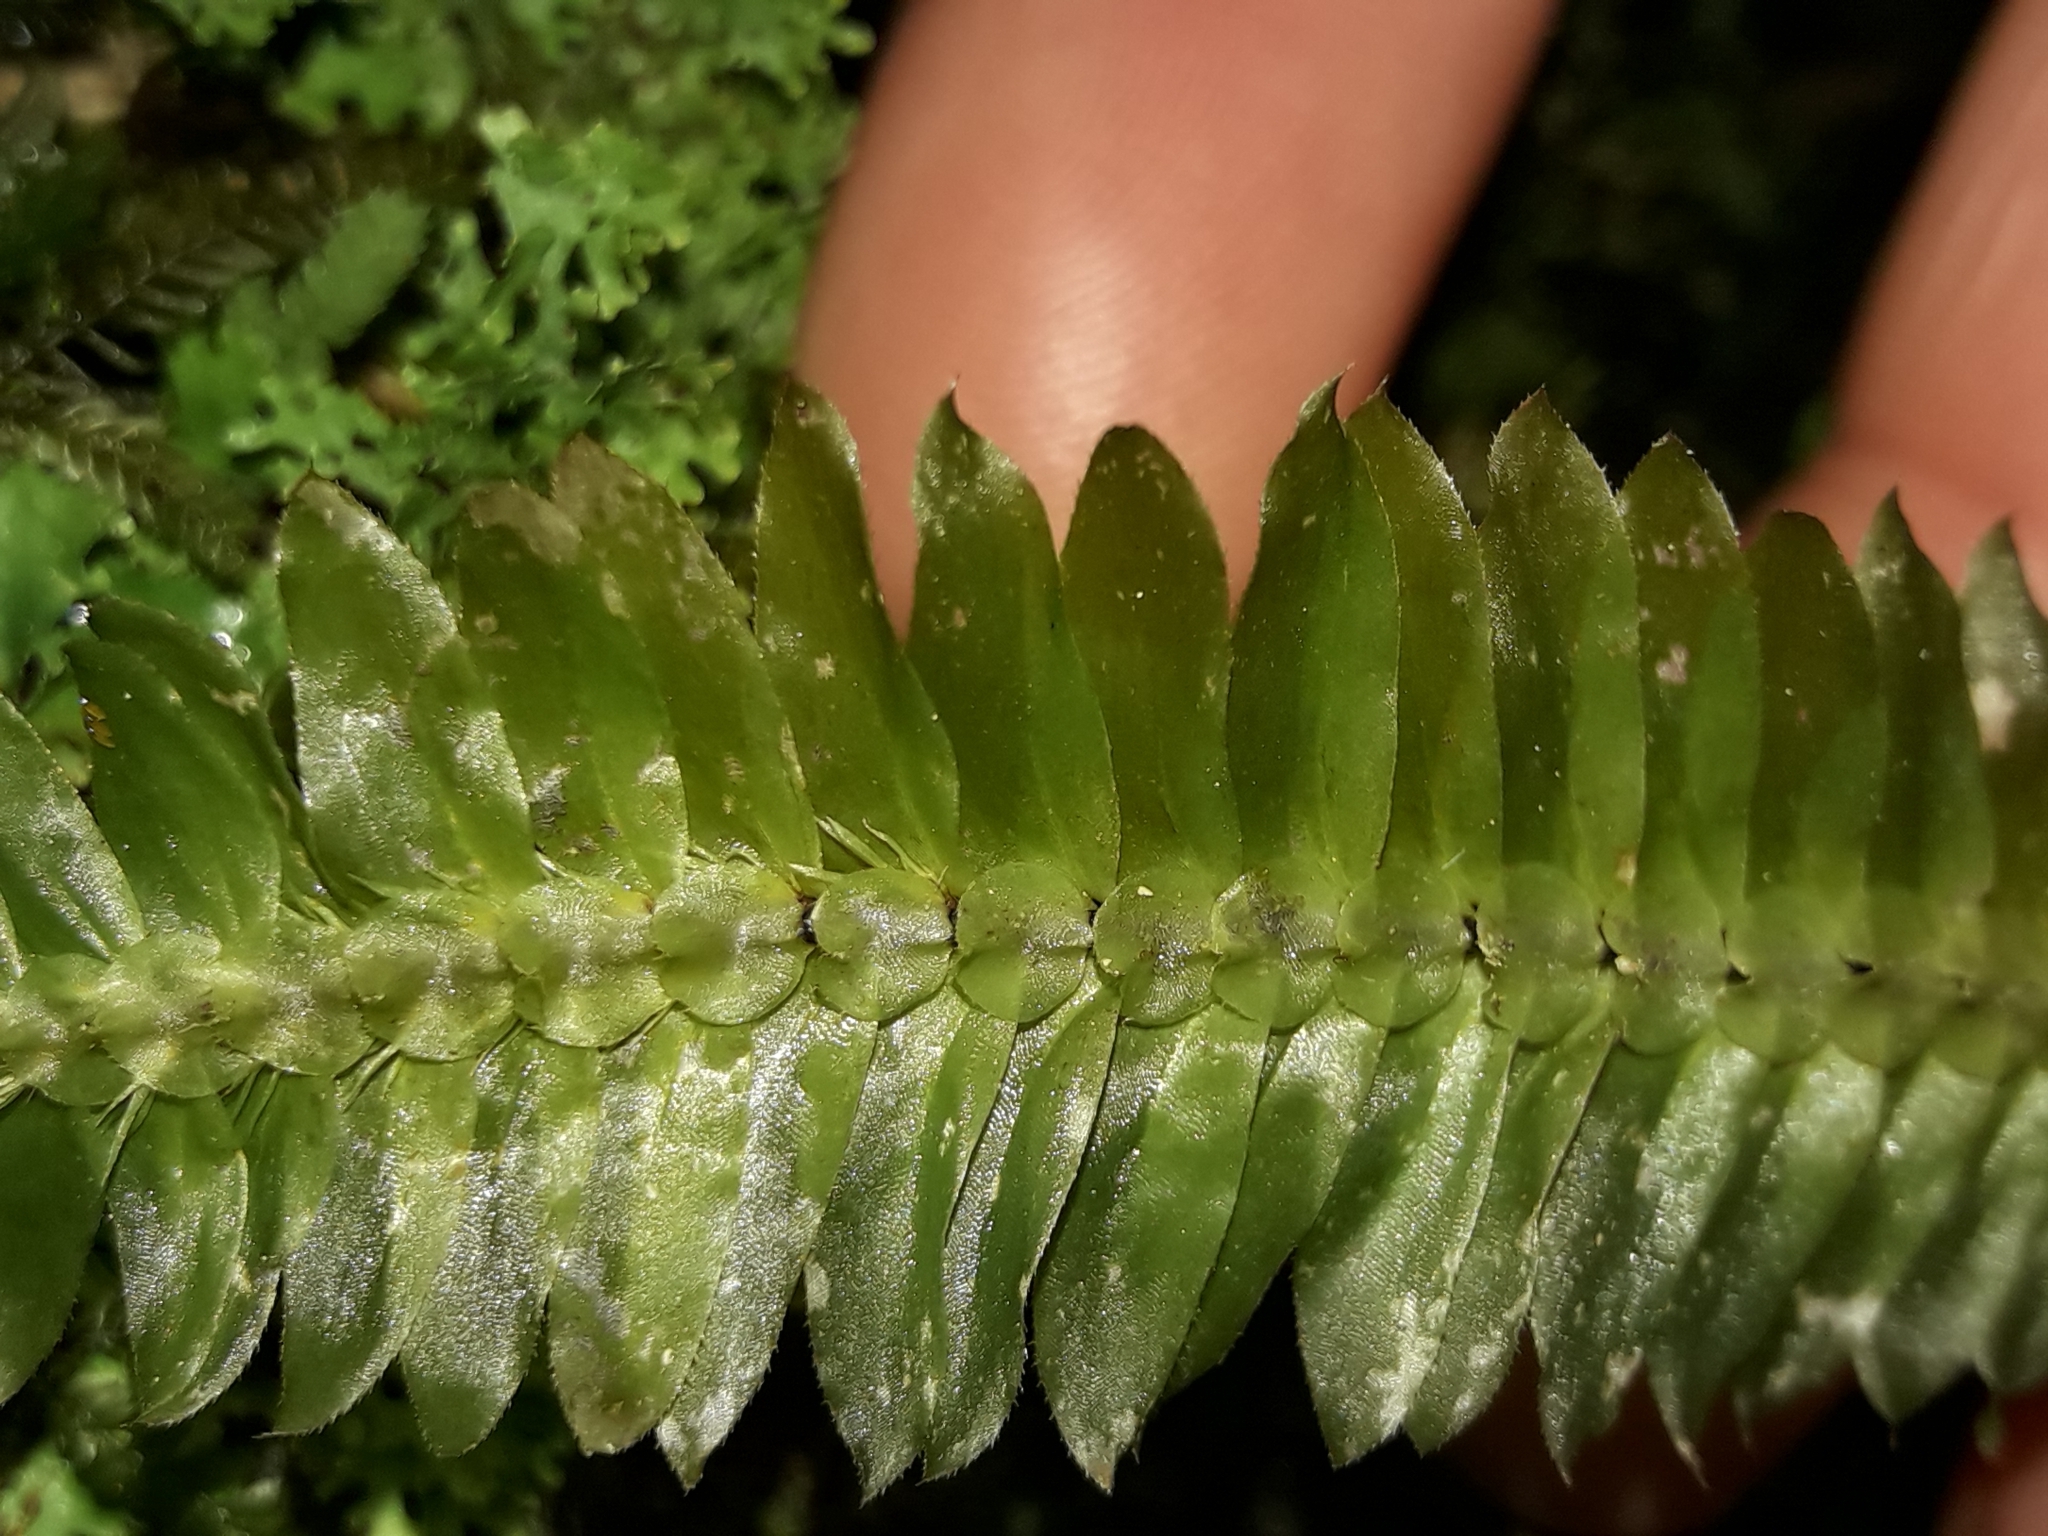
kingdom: Plantae
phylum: Bryophyta
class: Bryopsida
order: Hypopterygiales
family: Hypopterygiaceae
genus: Cyathophorum
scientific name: Cyathophorum bulbosum
